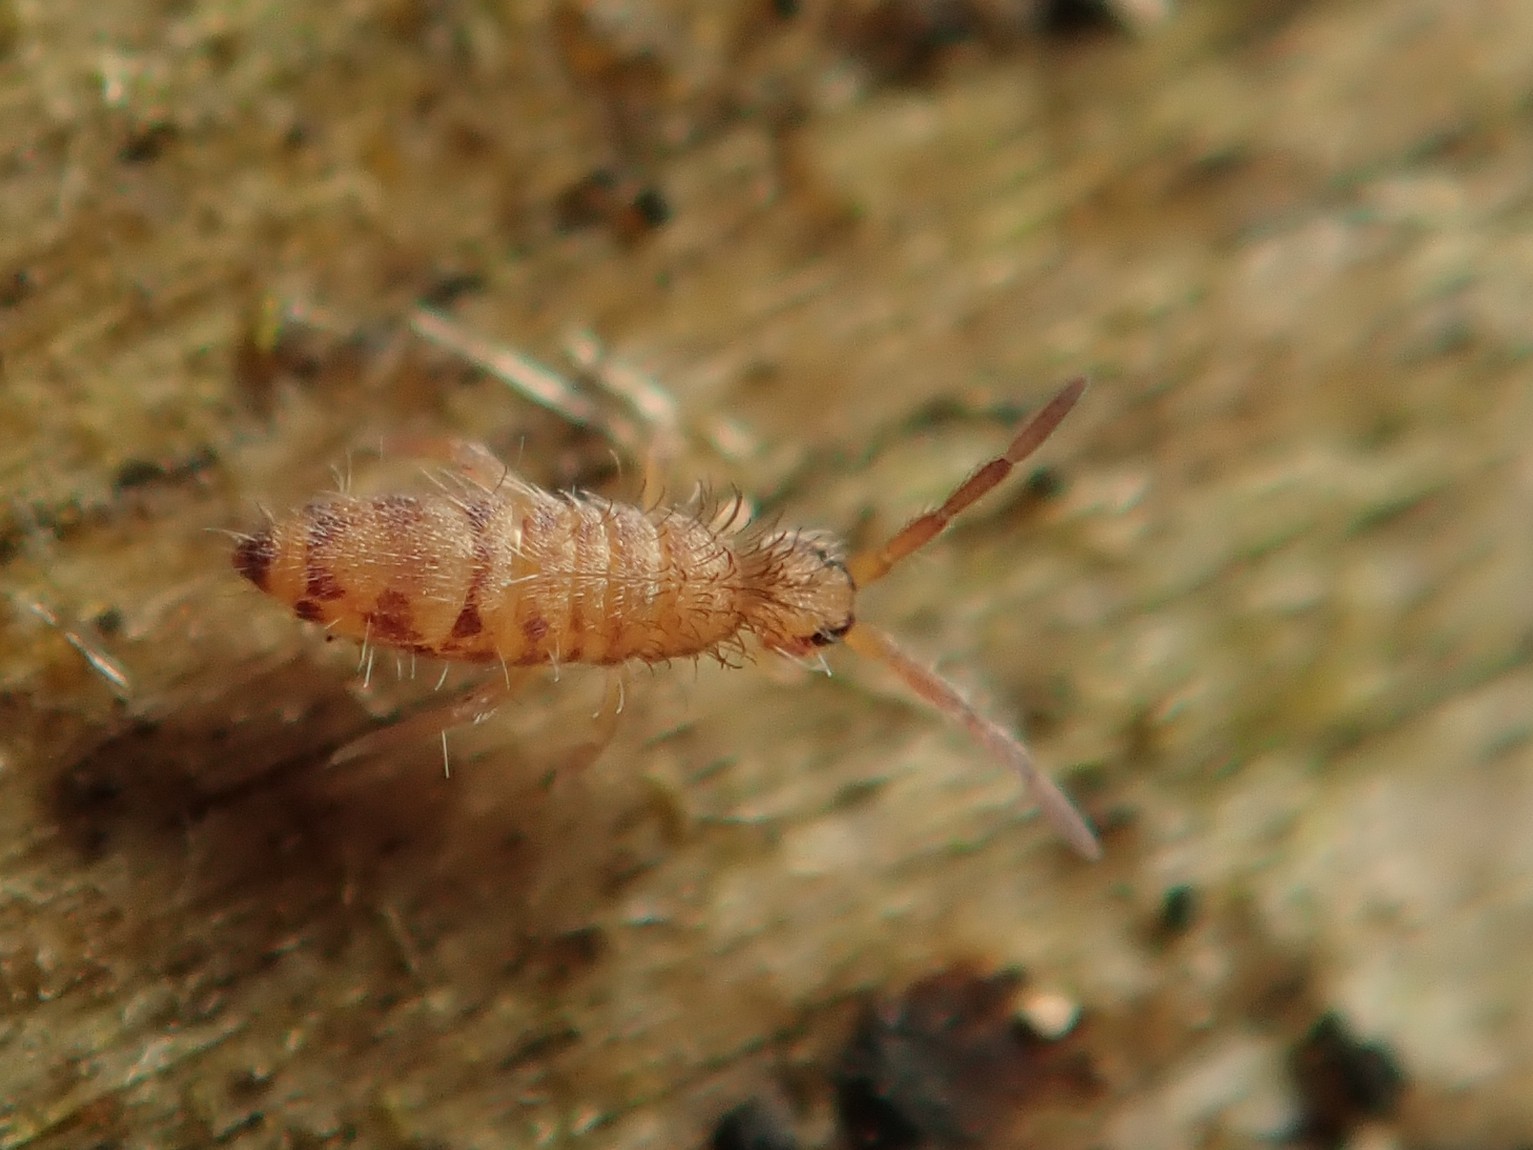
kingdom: Animalia
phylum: Arthropoda
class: Collembola
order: Entomobryomorpha
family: Entomobryidae
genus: Entomobrya
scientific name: Entomobrya multifasciata
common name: Springtail
